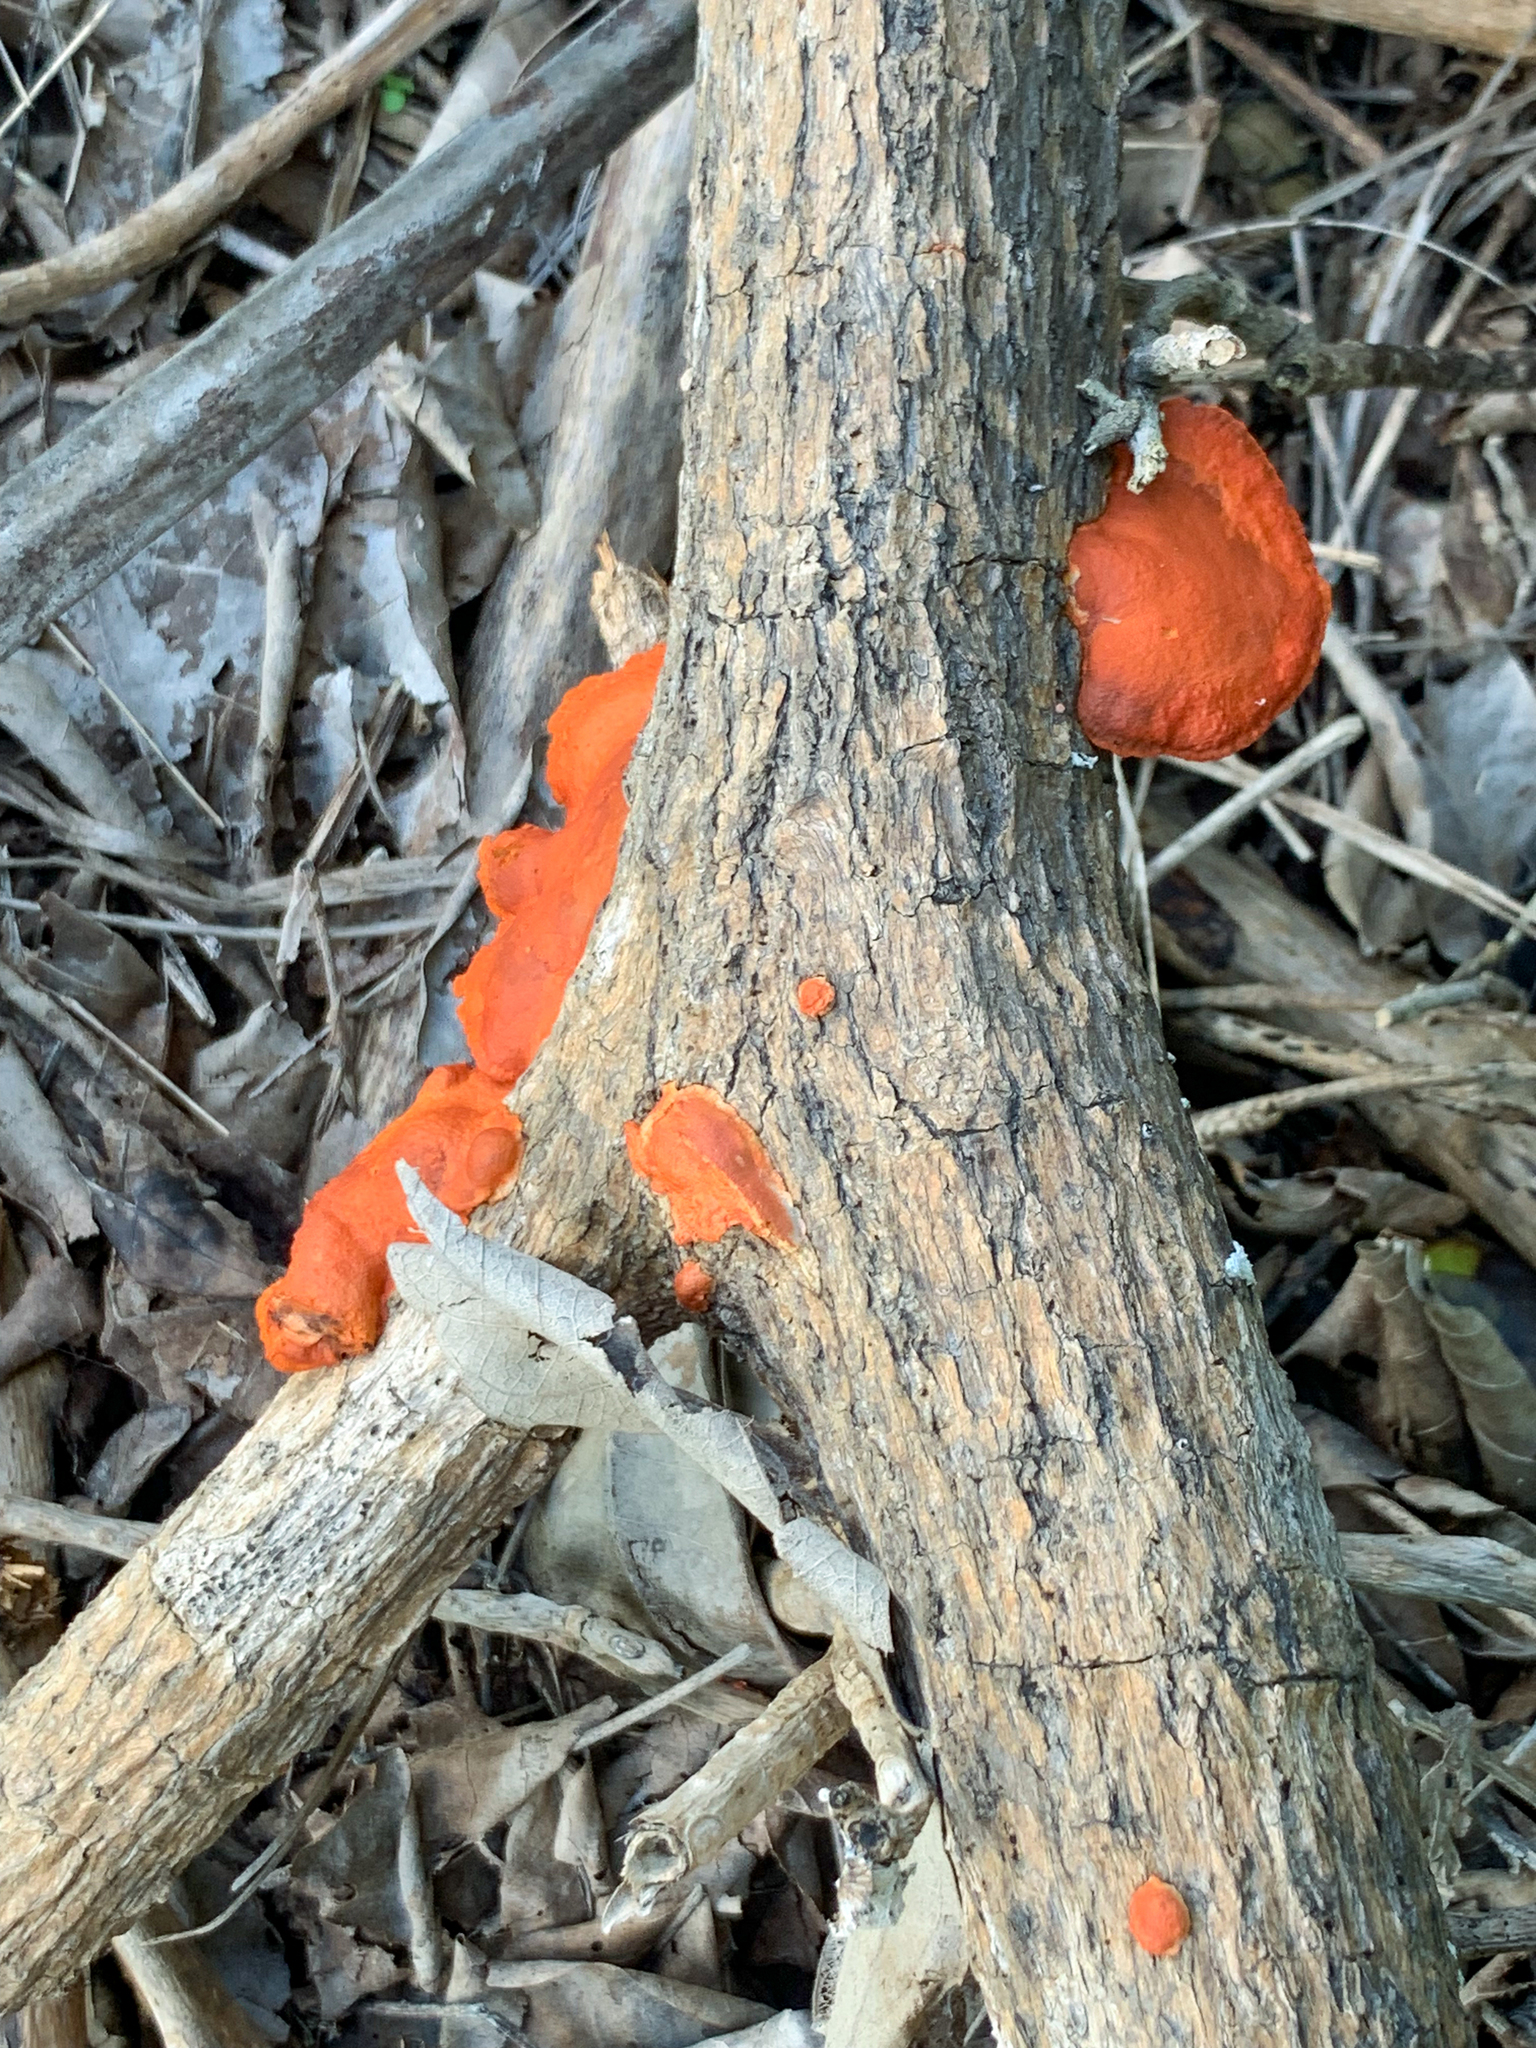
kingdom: Fungi
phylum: Basidiomycota
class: Agaricomycetes
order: Polyporales
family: Polyporaceae
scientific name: Polyporaceae
